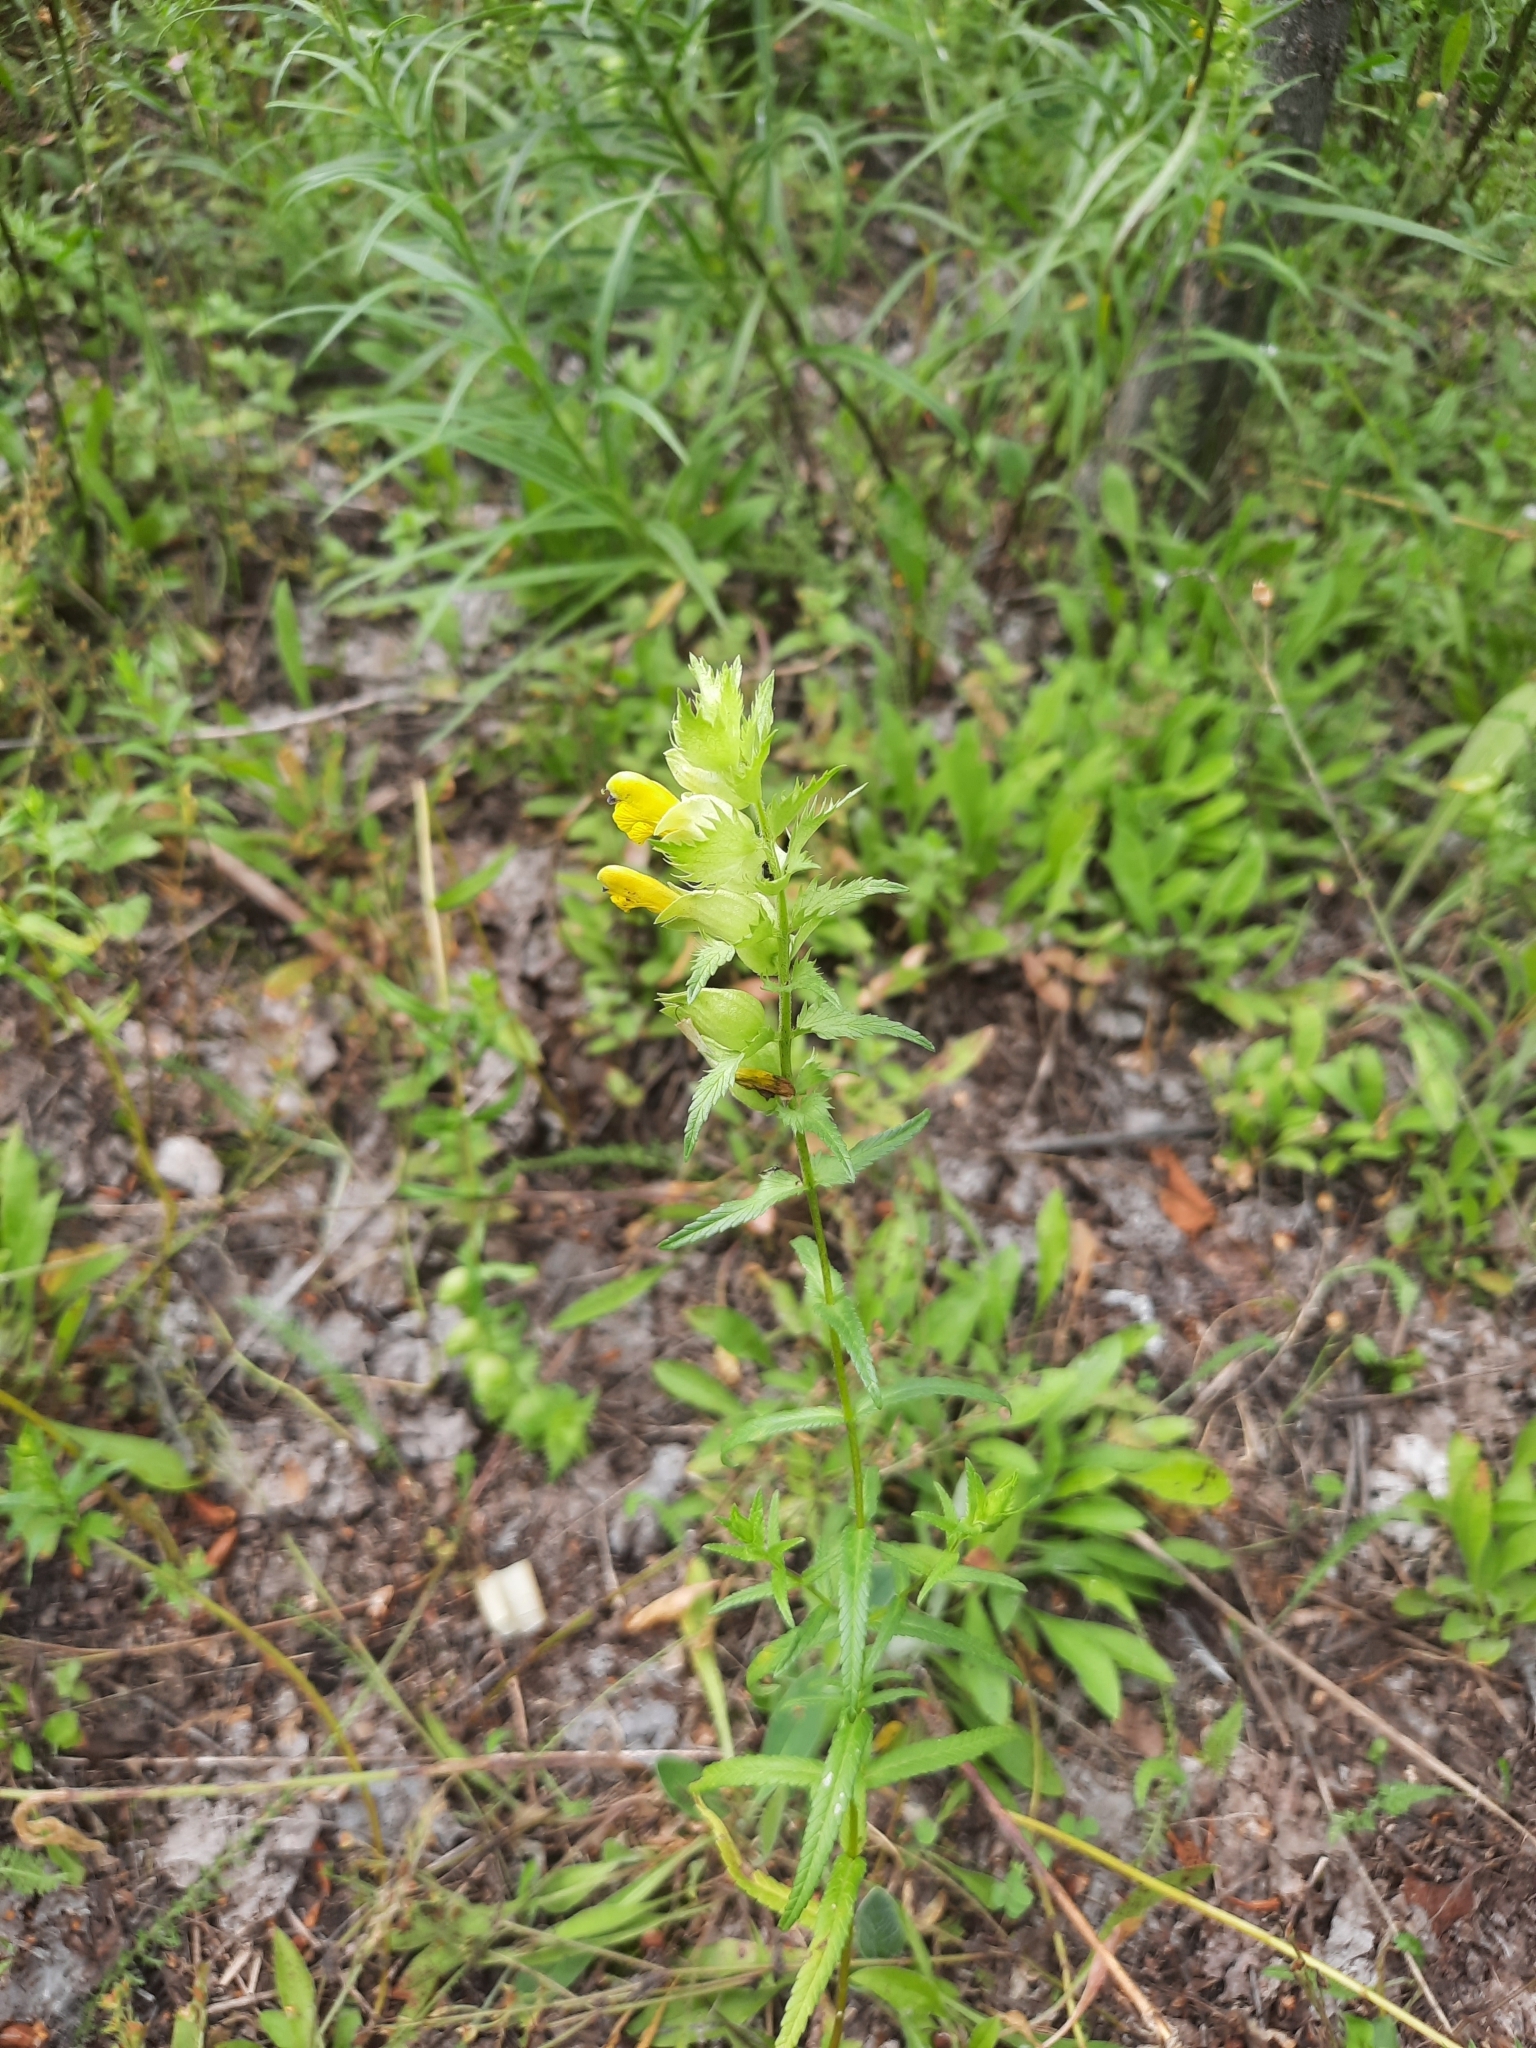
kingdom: Plantae
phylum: Tracheophyta
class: Magnoliopsida
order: Lamiales
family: Orobanchaceae
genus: Rhinanthus
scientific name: Rhinanthus serotinus
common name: Late-flowering yellow rattle
